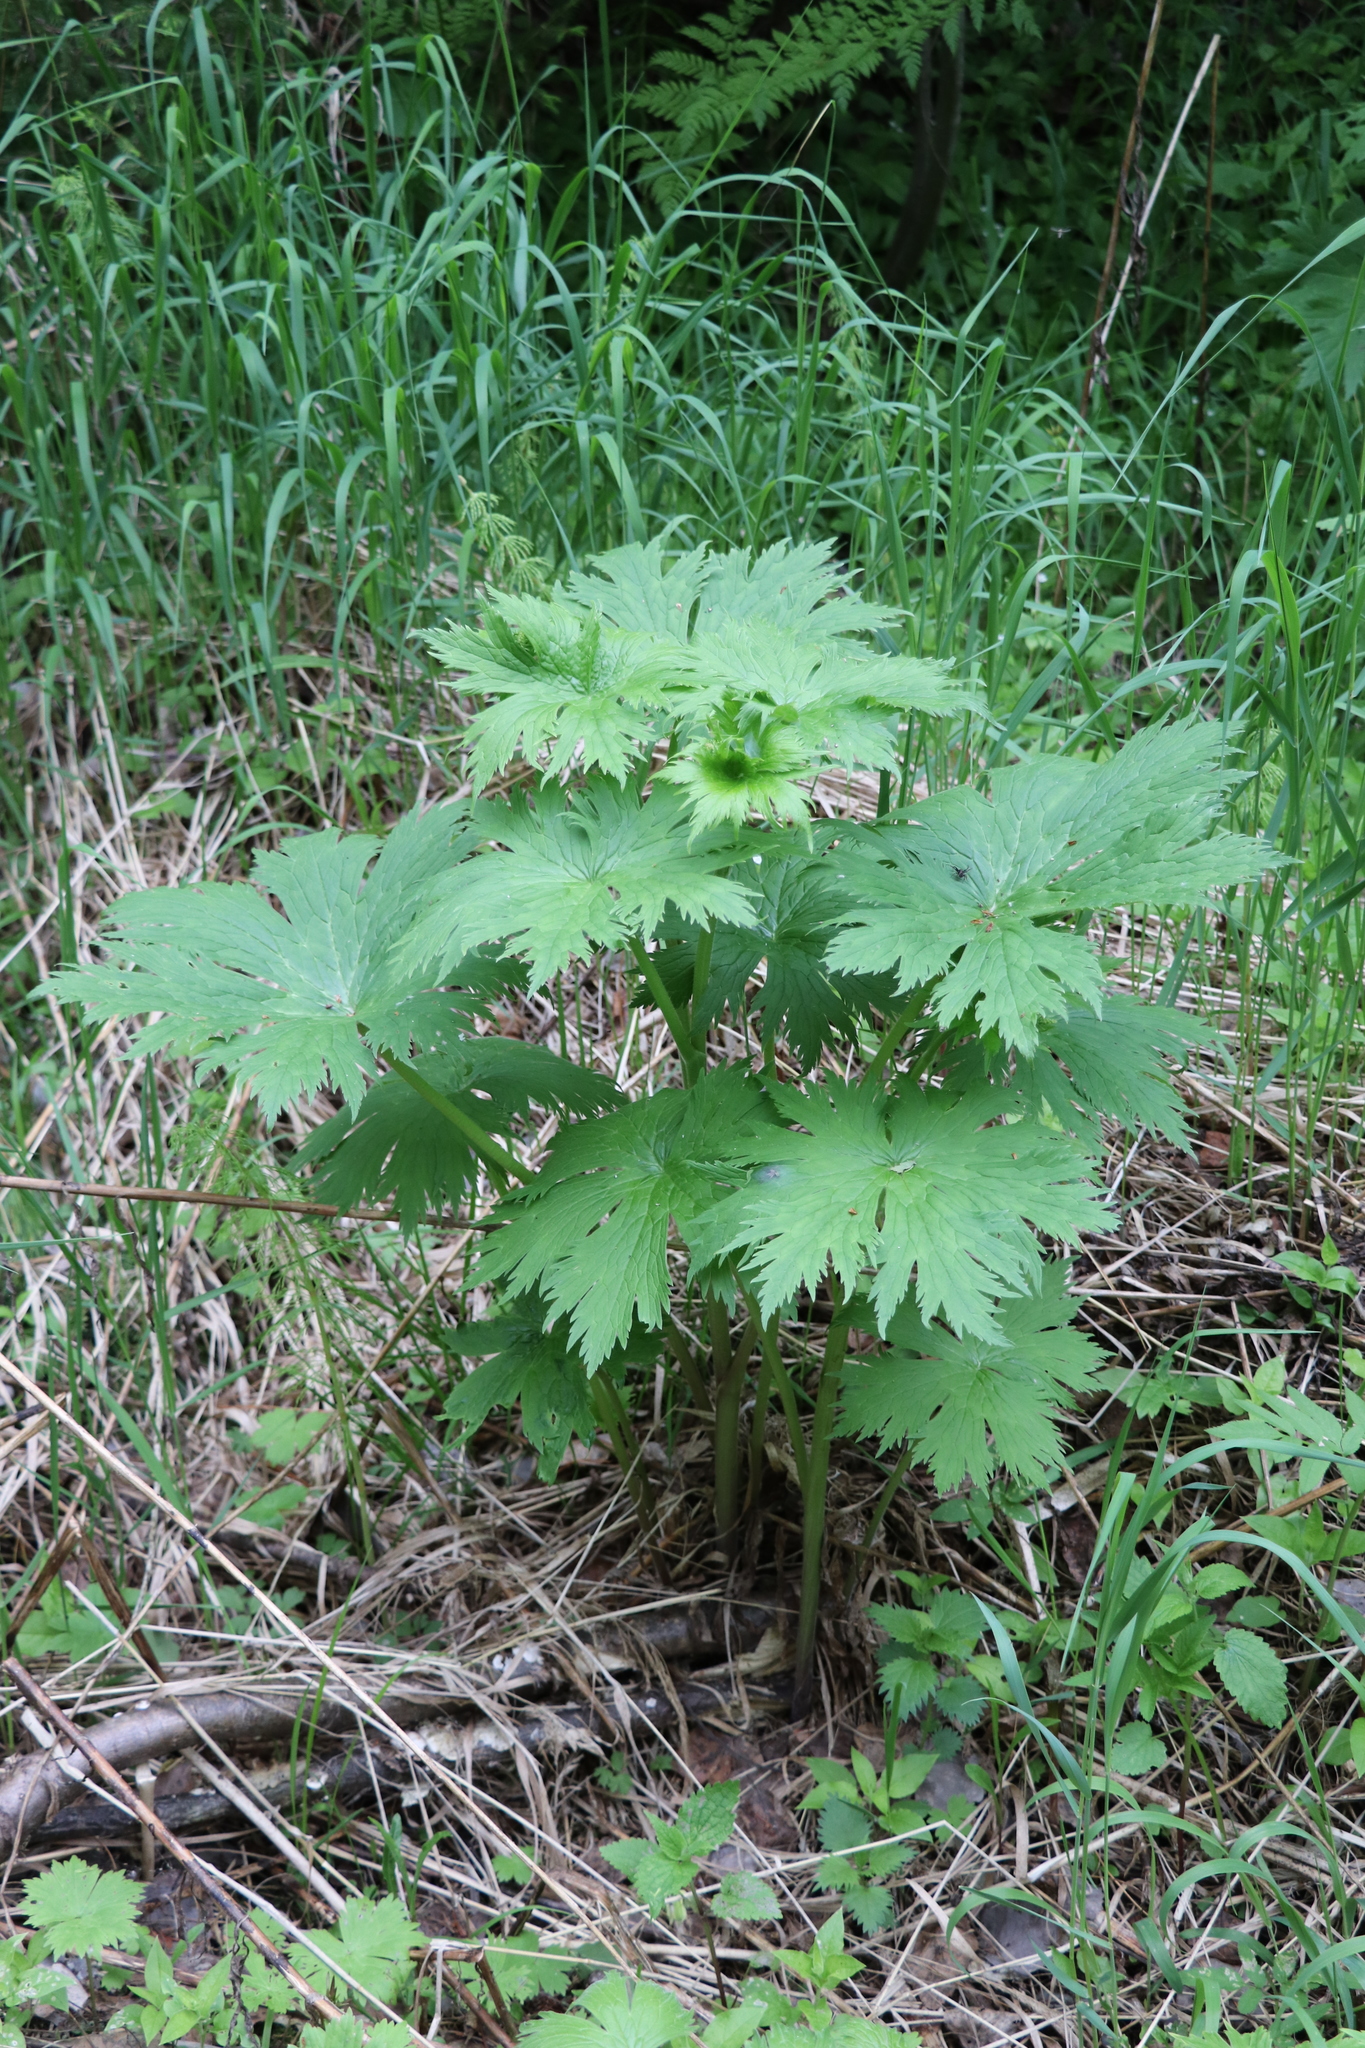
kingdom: Plantae
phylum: Tracheophyta
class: Magnoliopsida
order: Ranunculales
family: Ranunculaceae
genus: Aconitum
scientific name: Aconitum septentrionale
